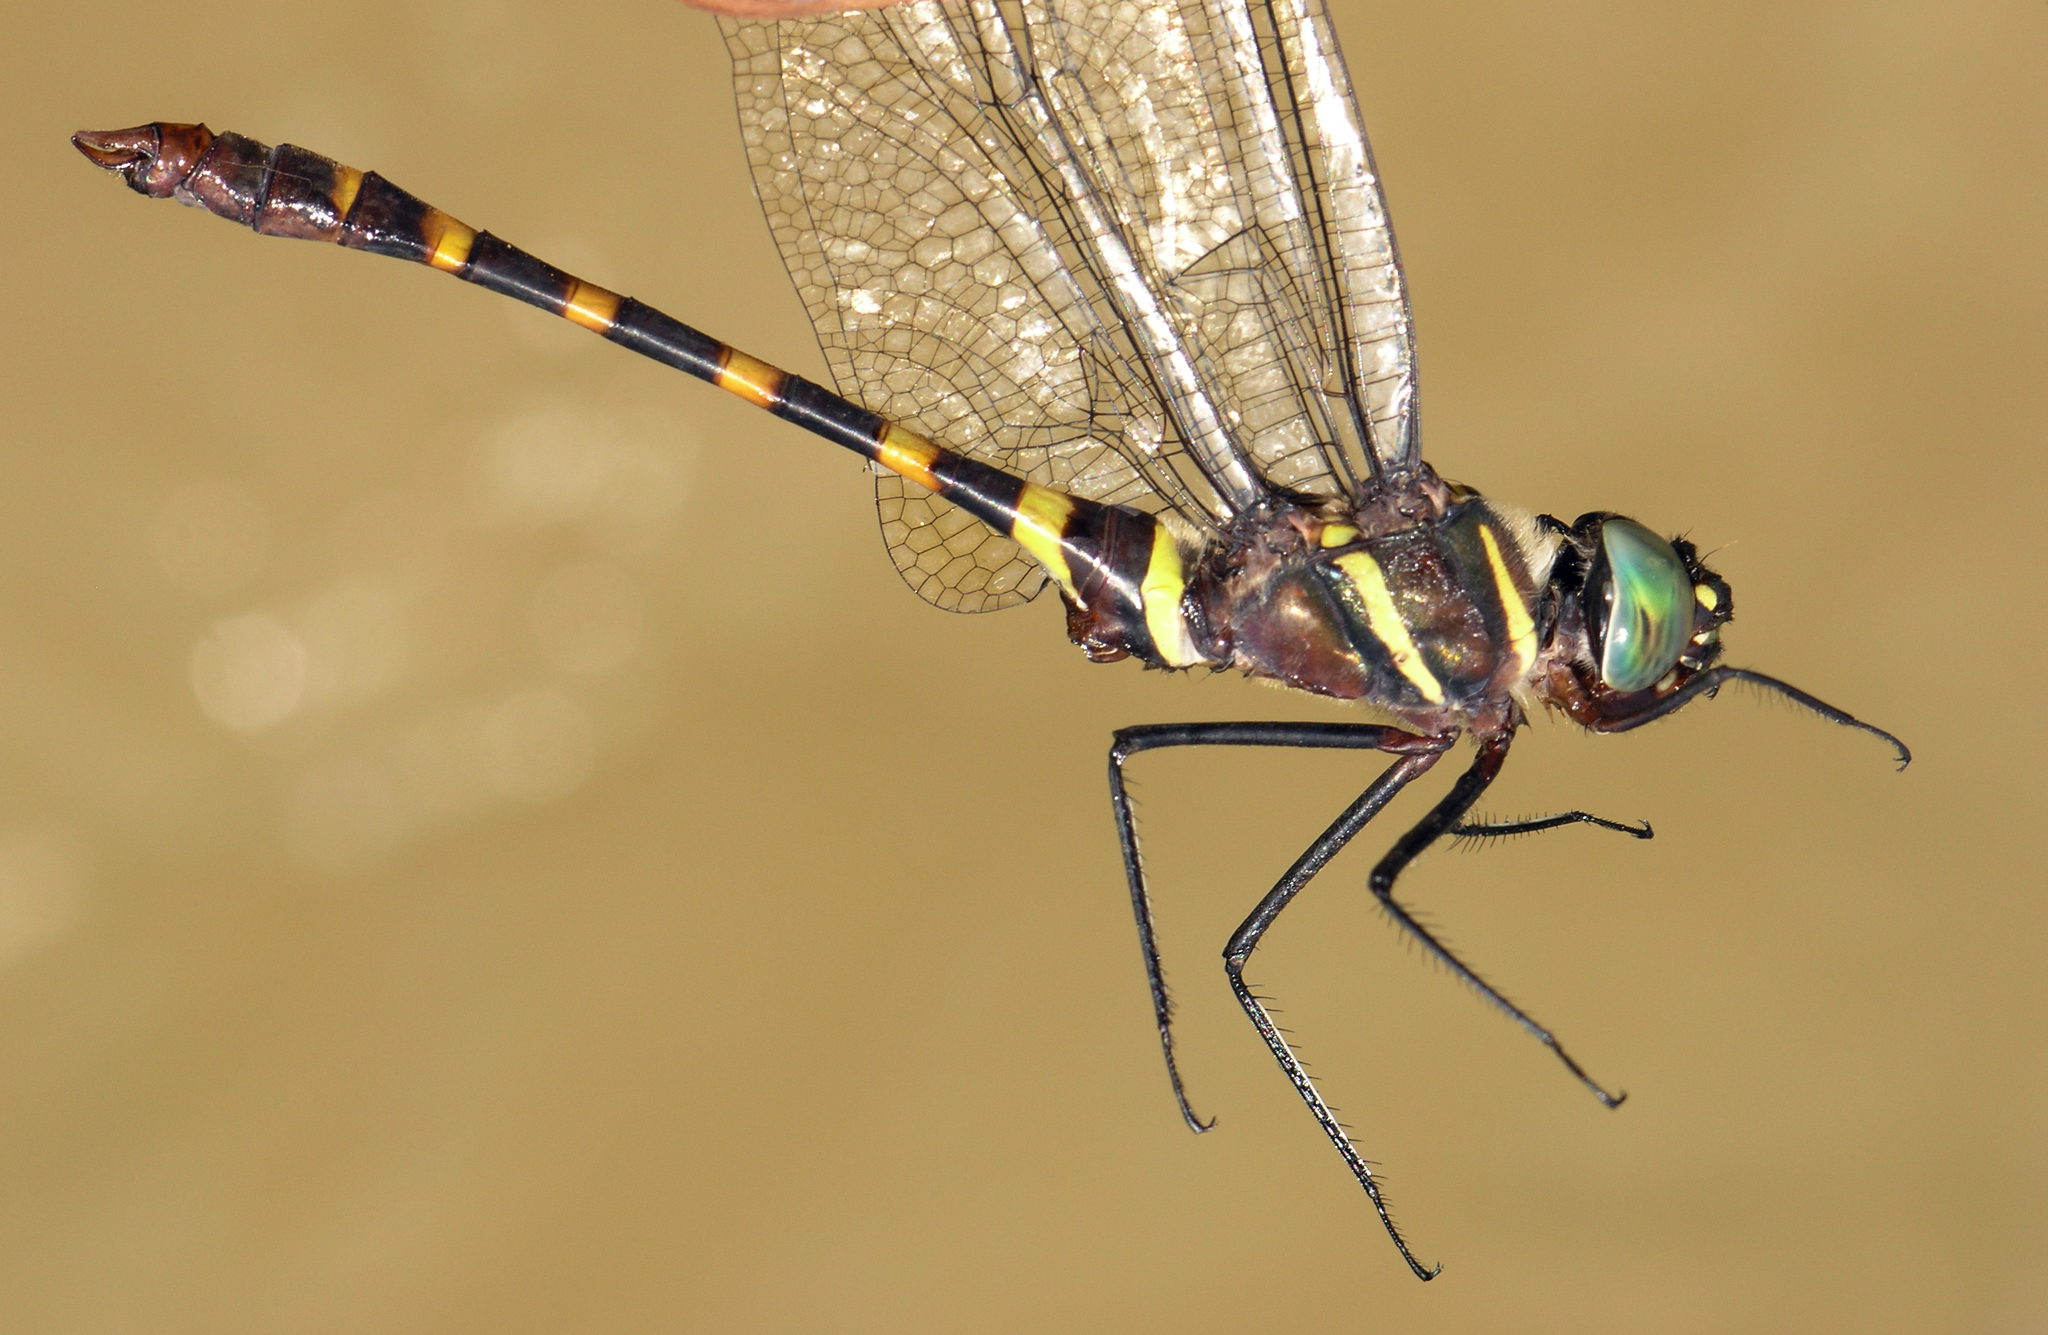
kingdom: Animalia
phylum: Arthropoda
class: Insecta
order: Odonata
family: Macromiidae
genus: Epophthalmia
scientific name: Epophthalmia frontalis
